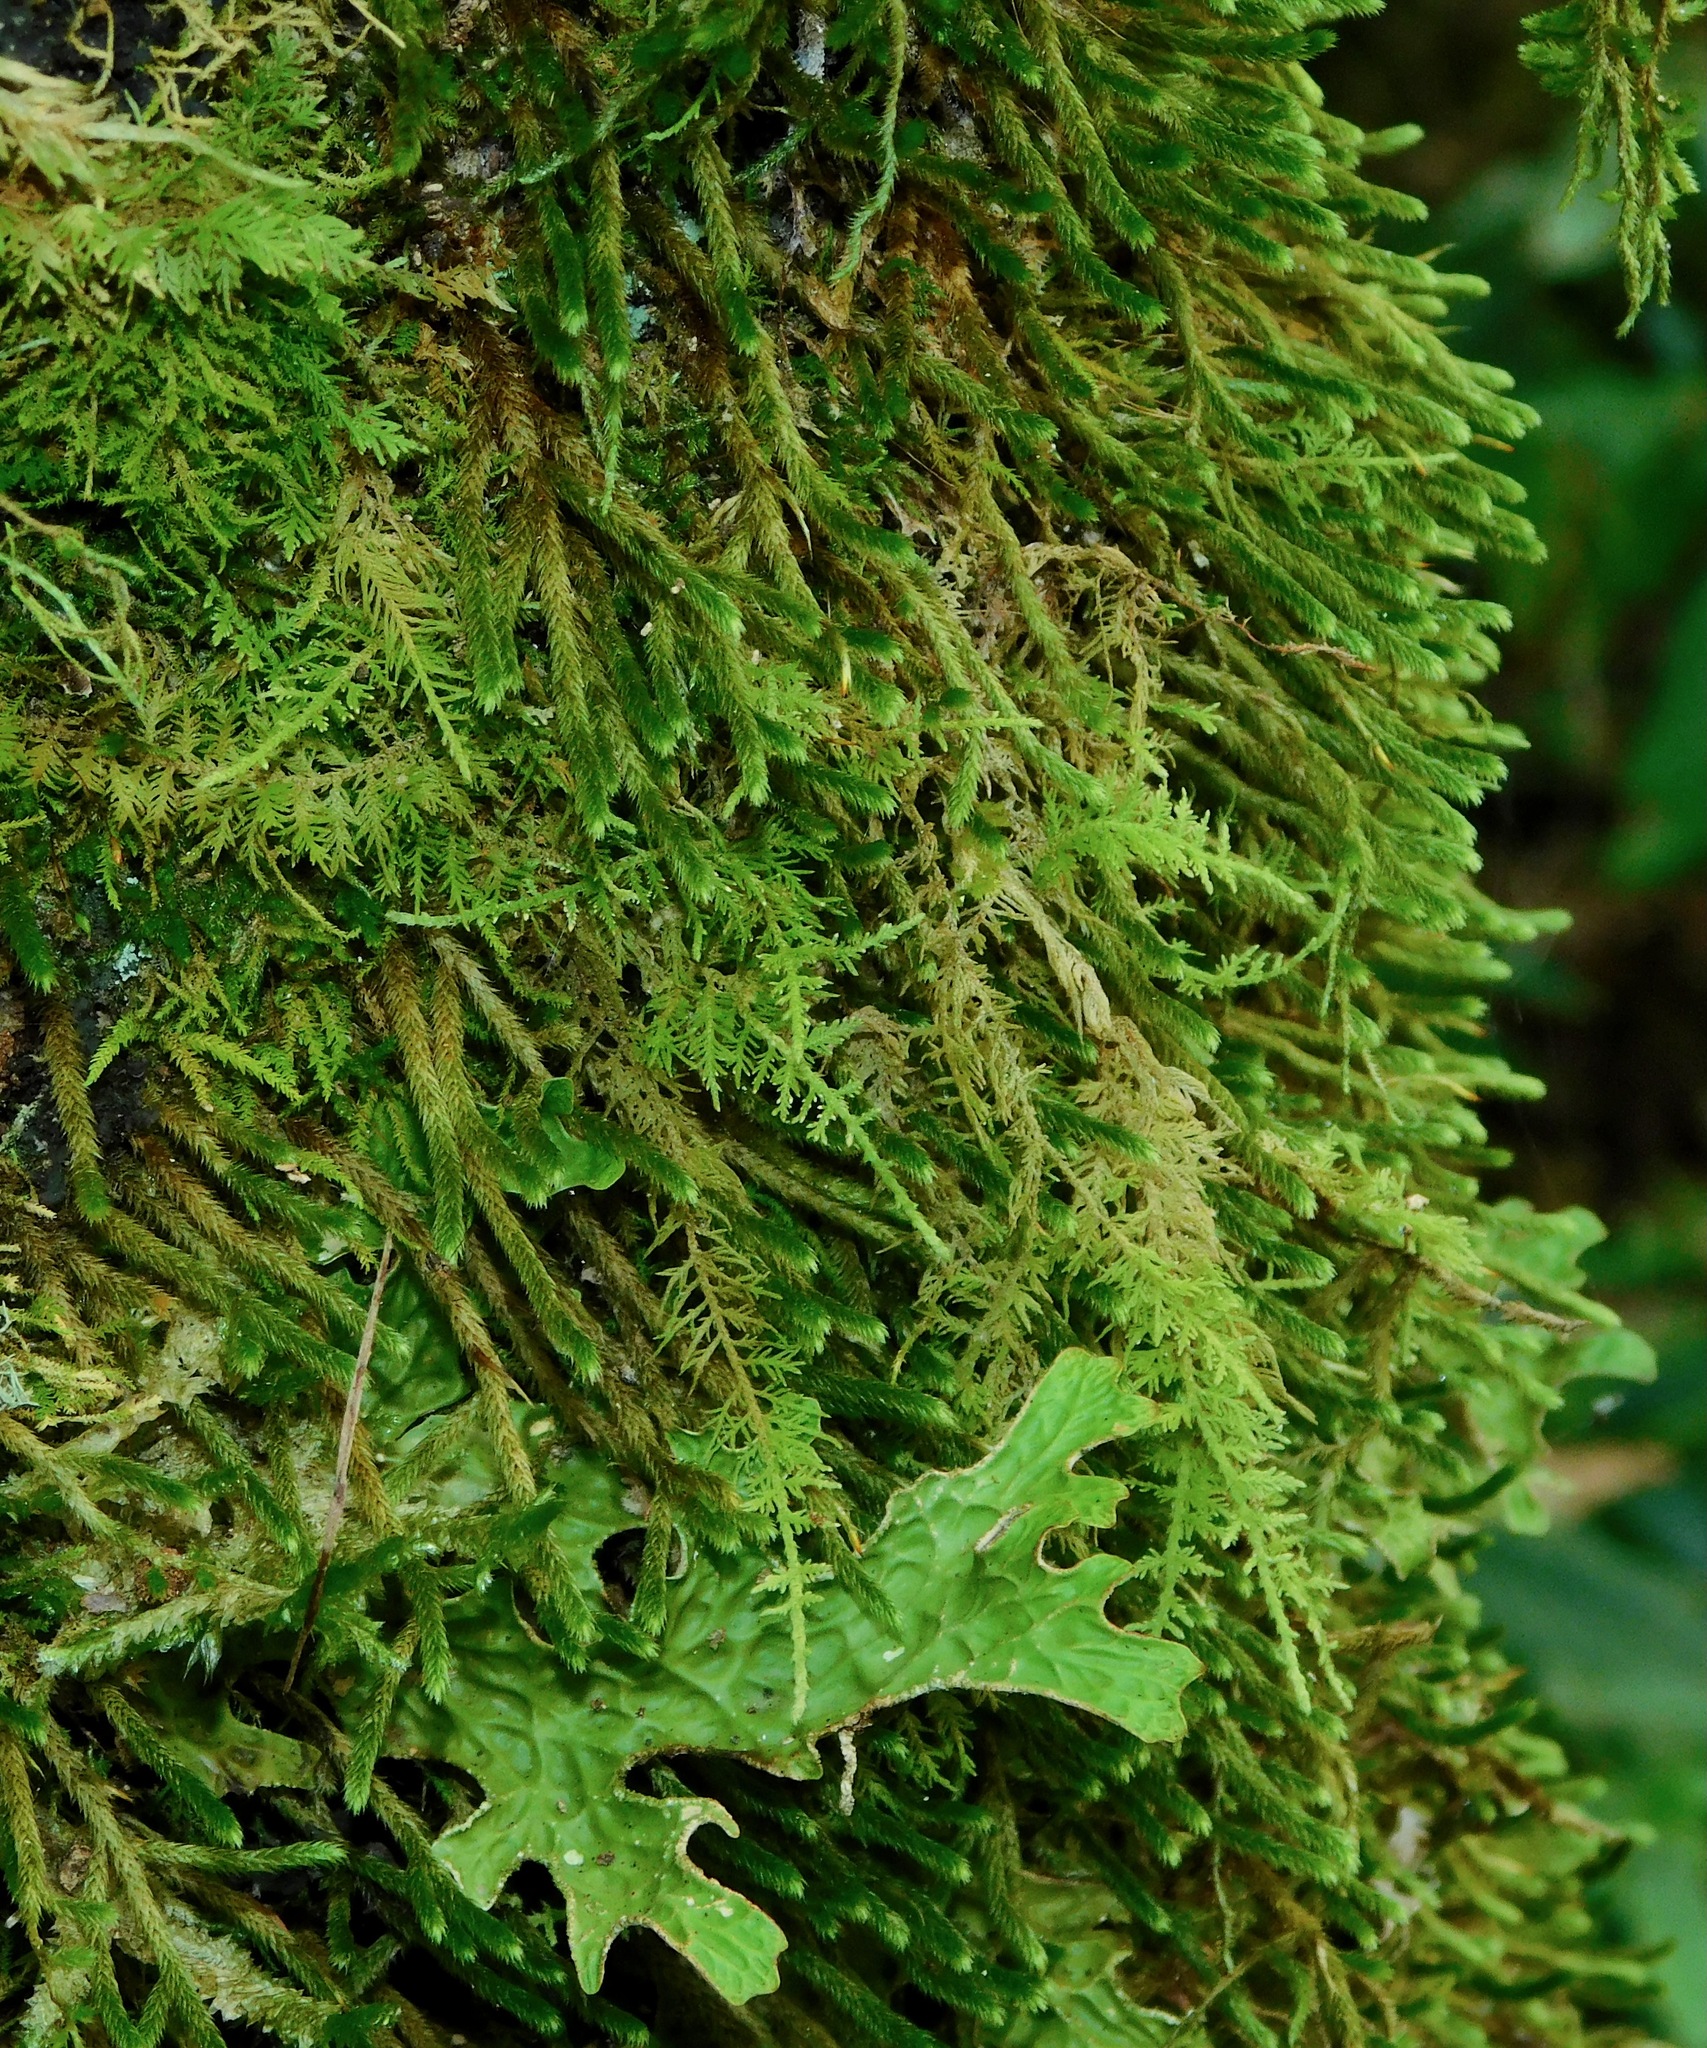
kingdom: Plantae
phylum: Bryophyta
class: Bryopsida
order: Hypnales
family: Leucodontaceae
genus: Leucodon
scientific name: Leucodon julaceus
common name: Smooth hook moss
